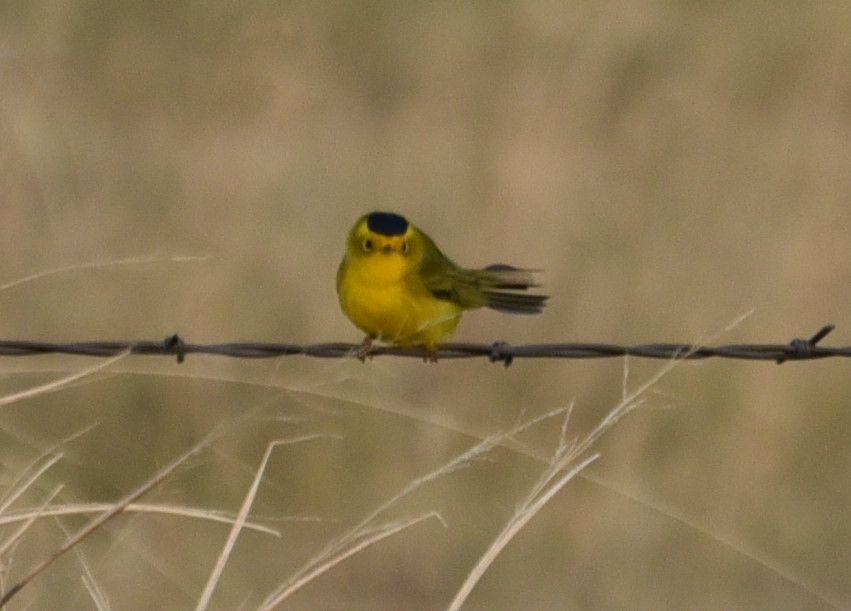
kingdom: Animalia
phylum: Chordata
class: Aves
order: Passeriformes
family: Parulidae
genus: Cardellina
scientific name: Cardellina pusilla
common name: Wilson's warbler
